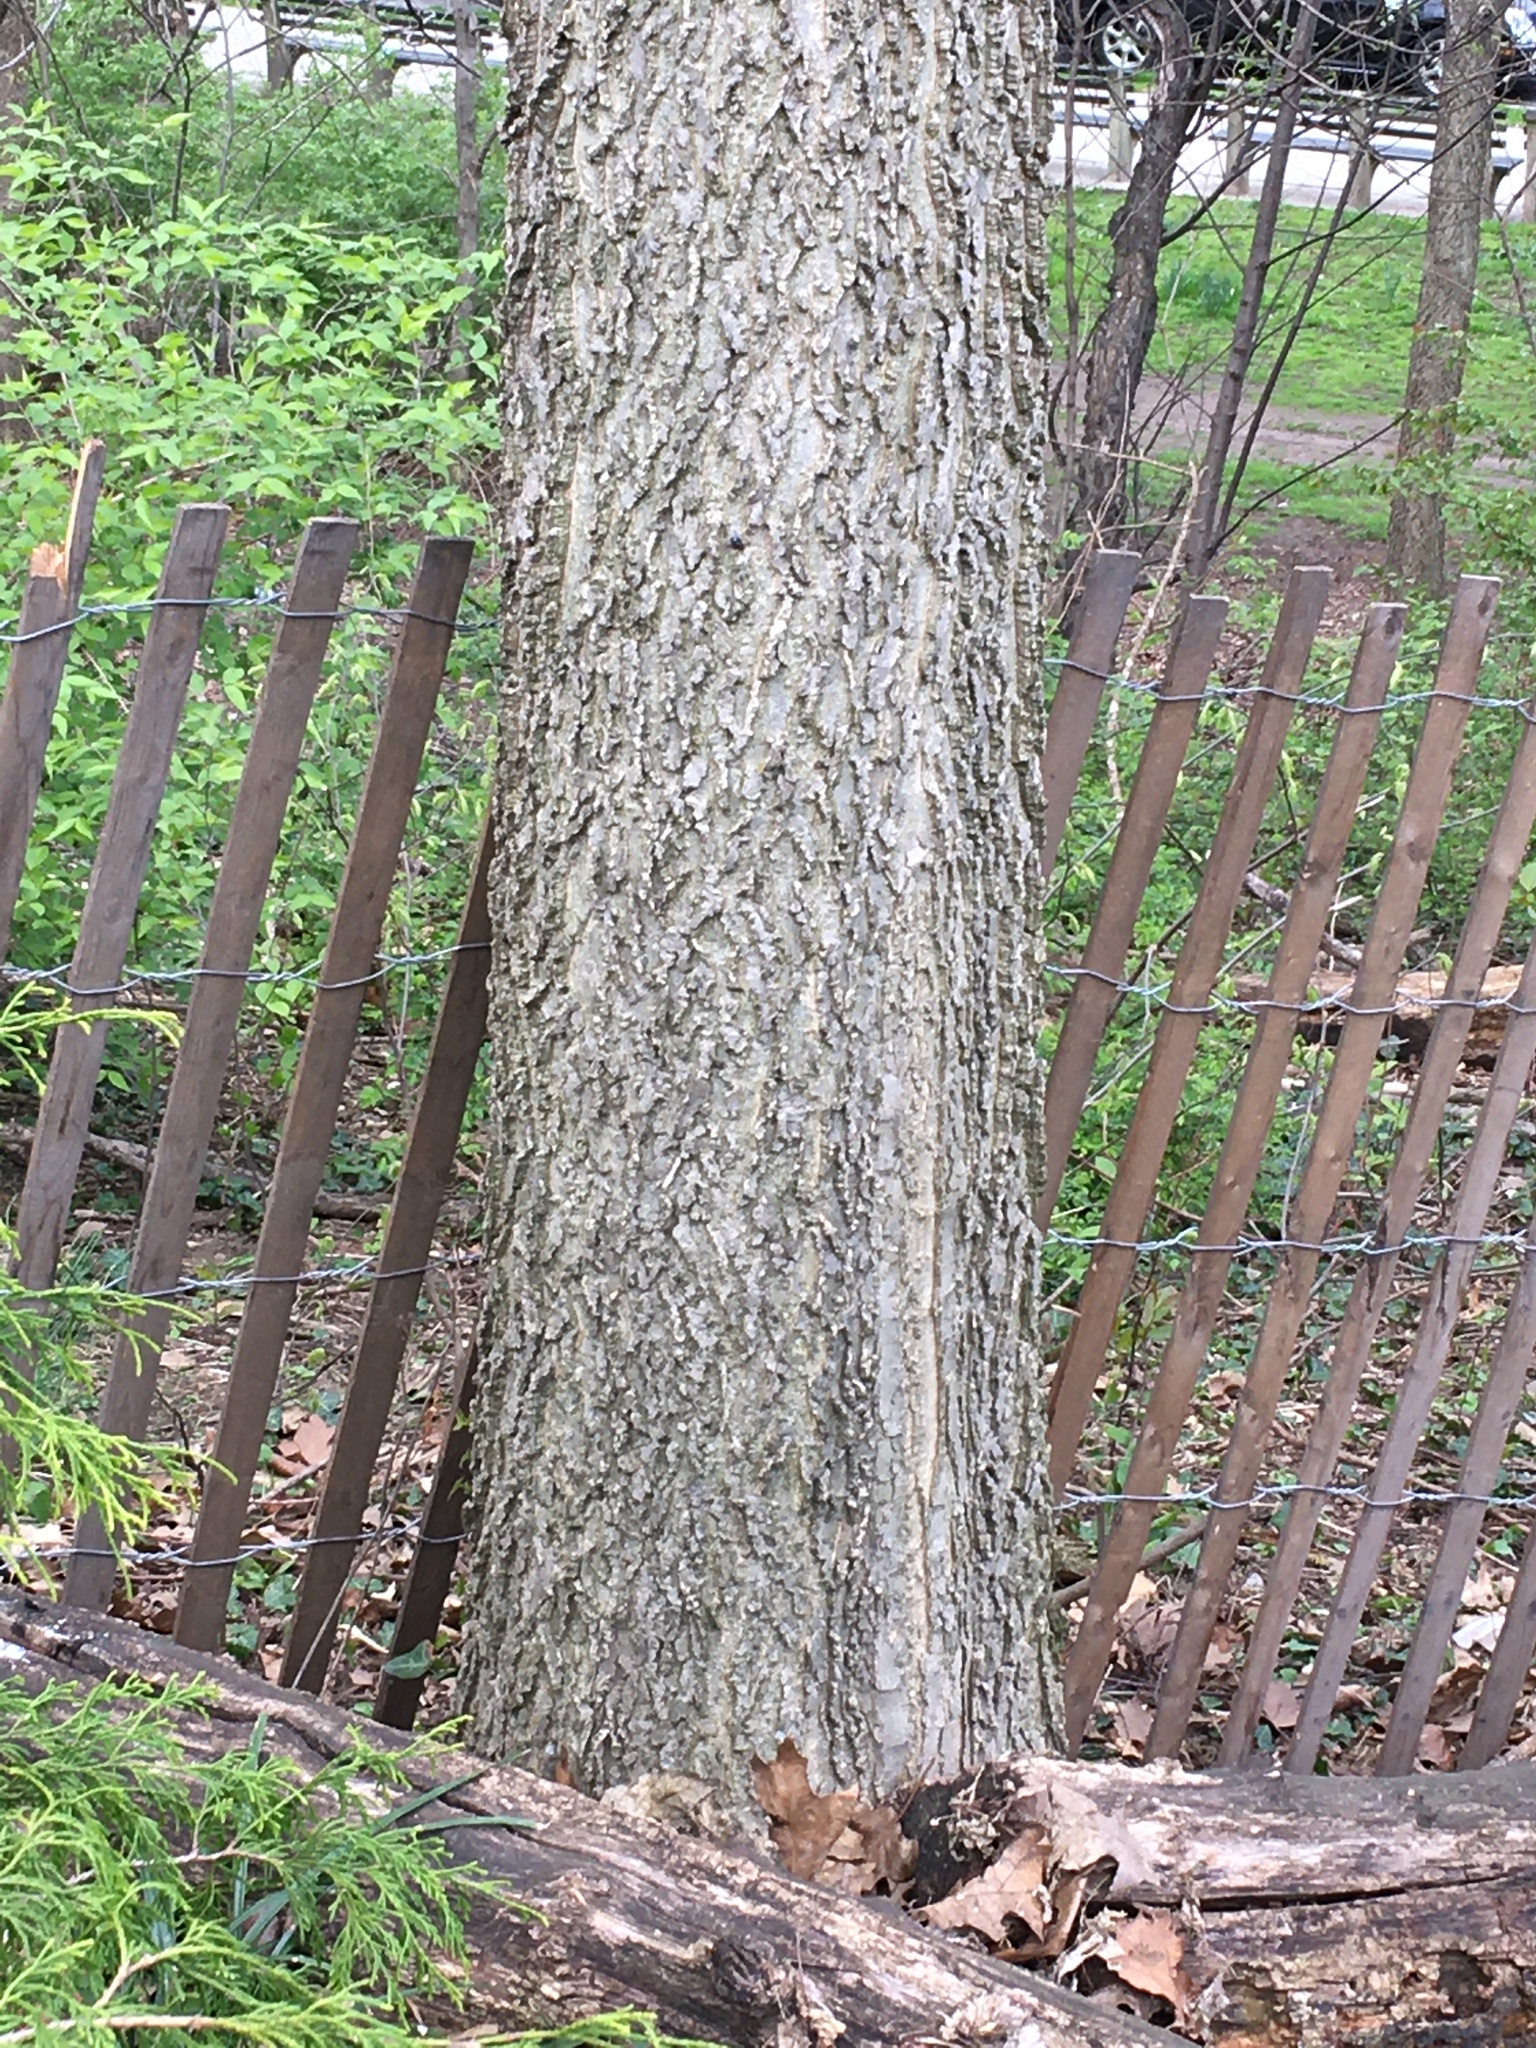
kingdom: Plantae
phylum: Tracheophyta
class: Magnoliopsida
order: Rosales
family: Cannabaceae
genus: Celtis
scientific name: Celtis occidentalis
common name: Common hackberry
